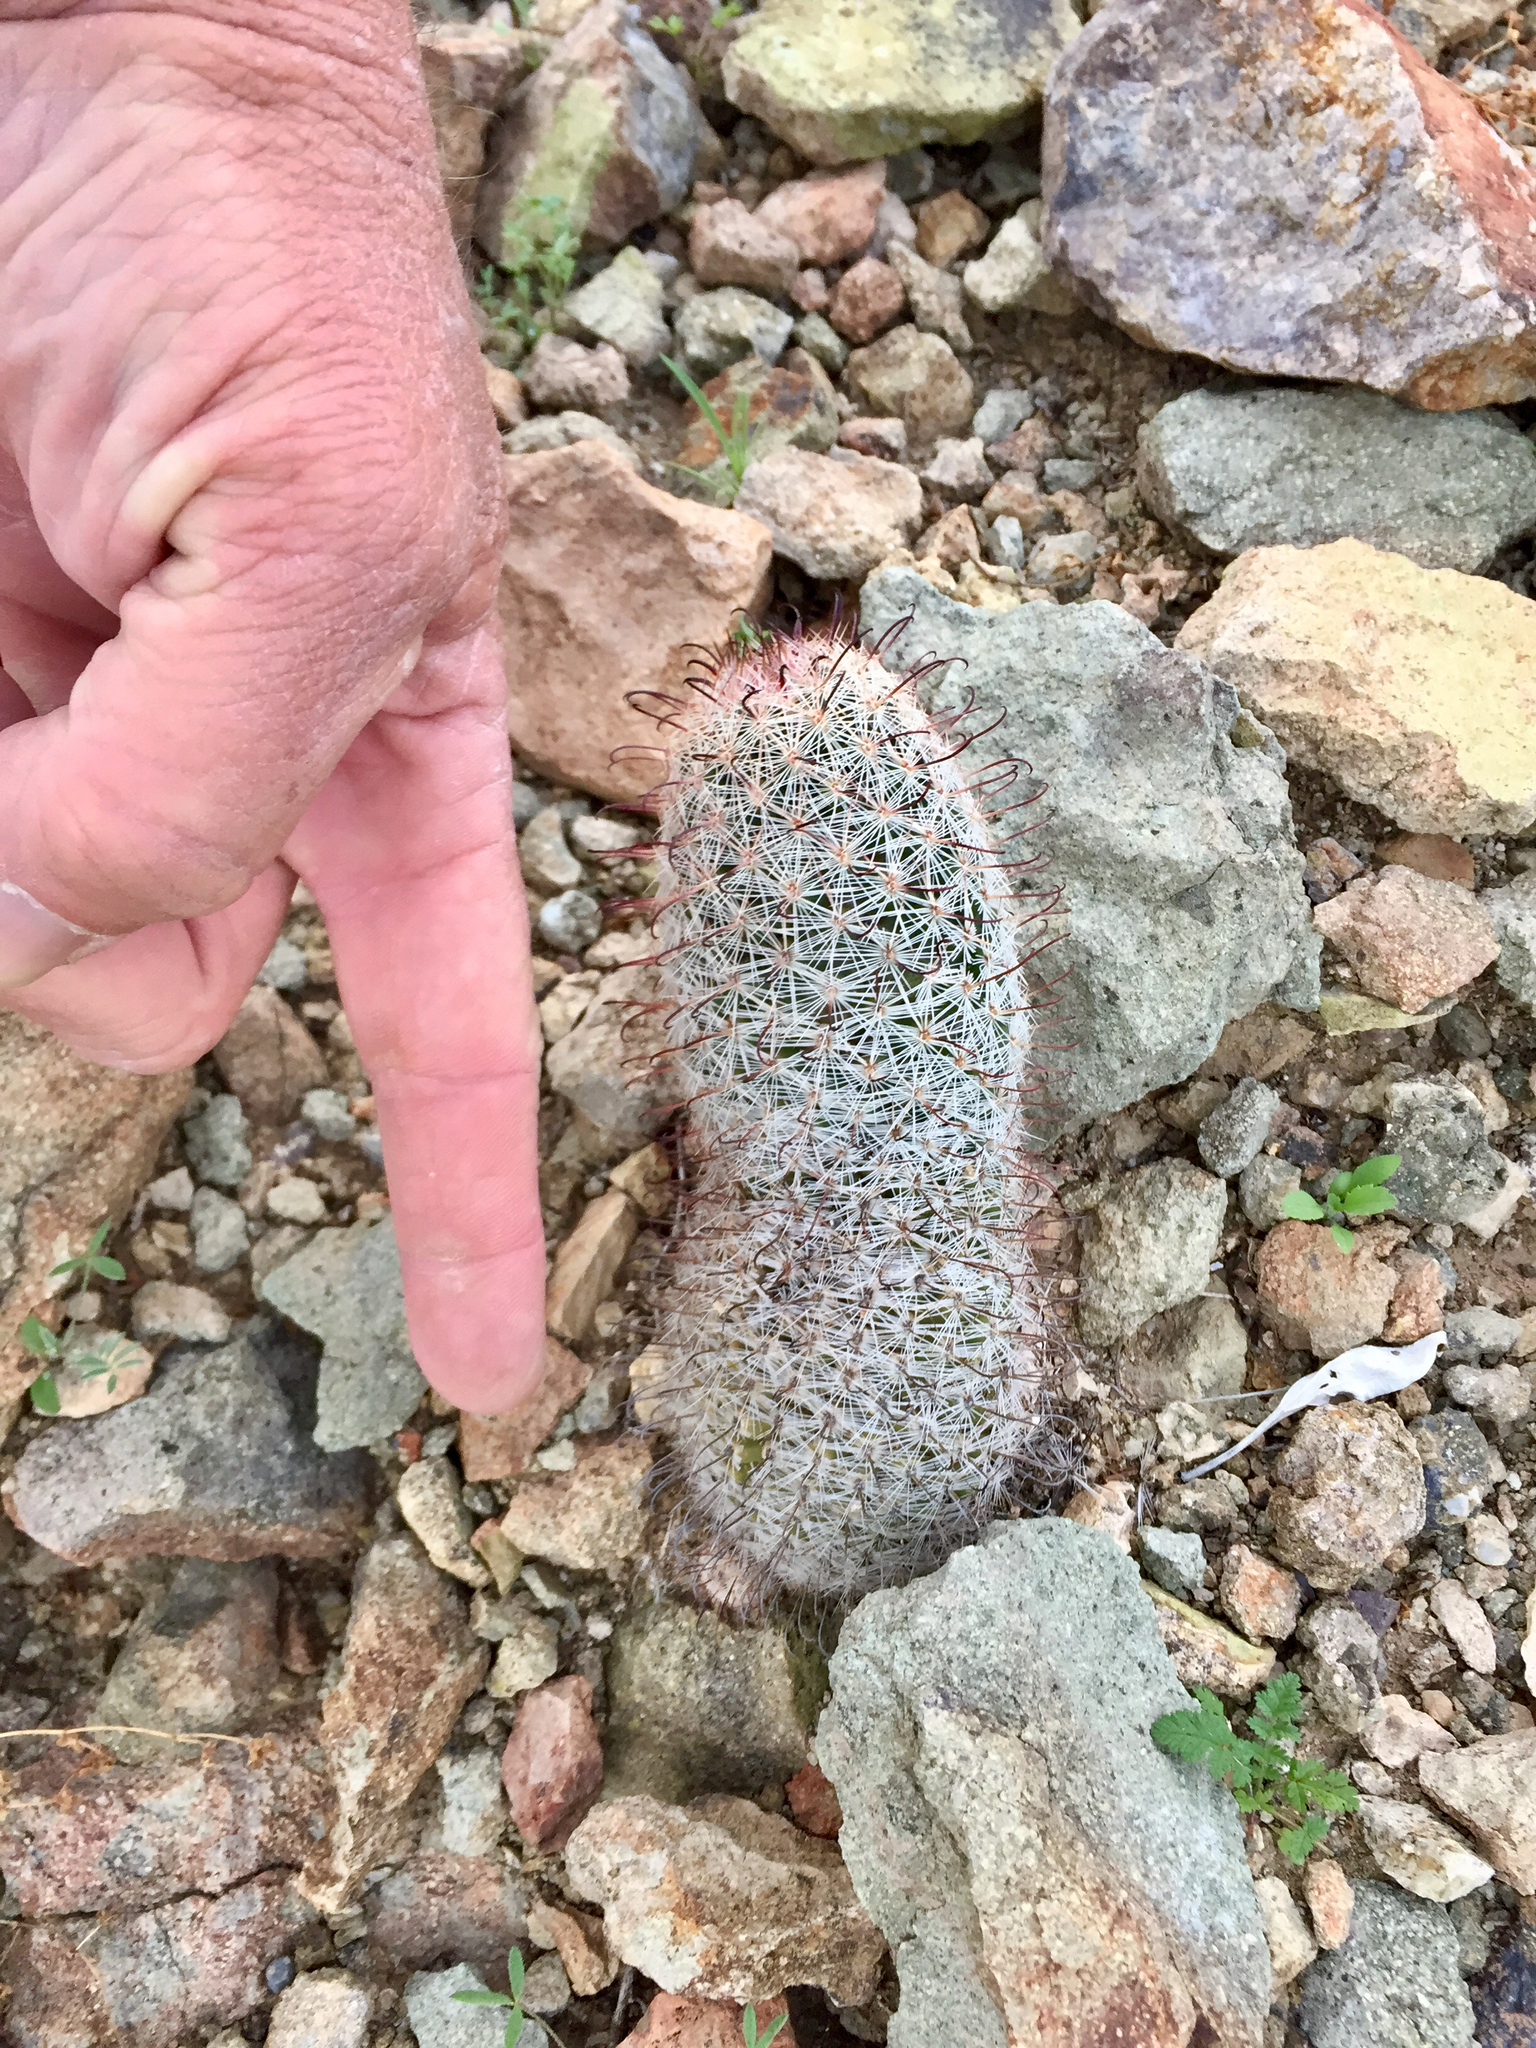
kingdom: Plantae
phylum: Tracheophyta
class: Magnoliopsida
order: Caryophyllales
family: Cactaceae
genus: Cochemiea
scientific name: Cochemiea grahamii
